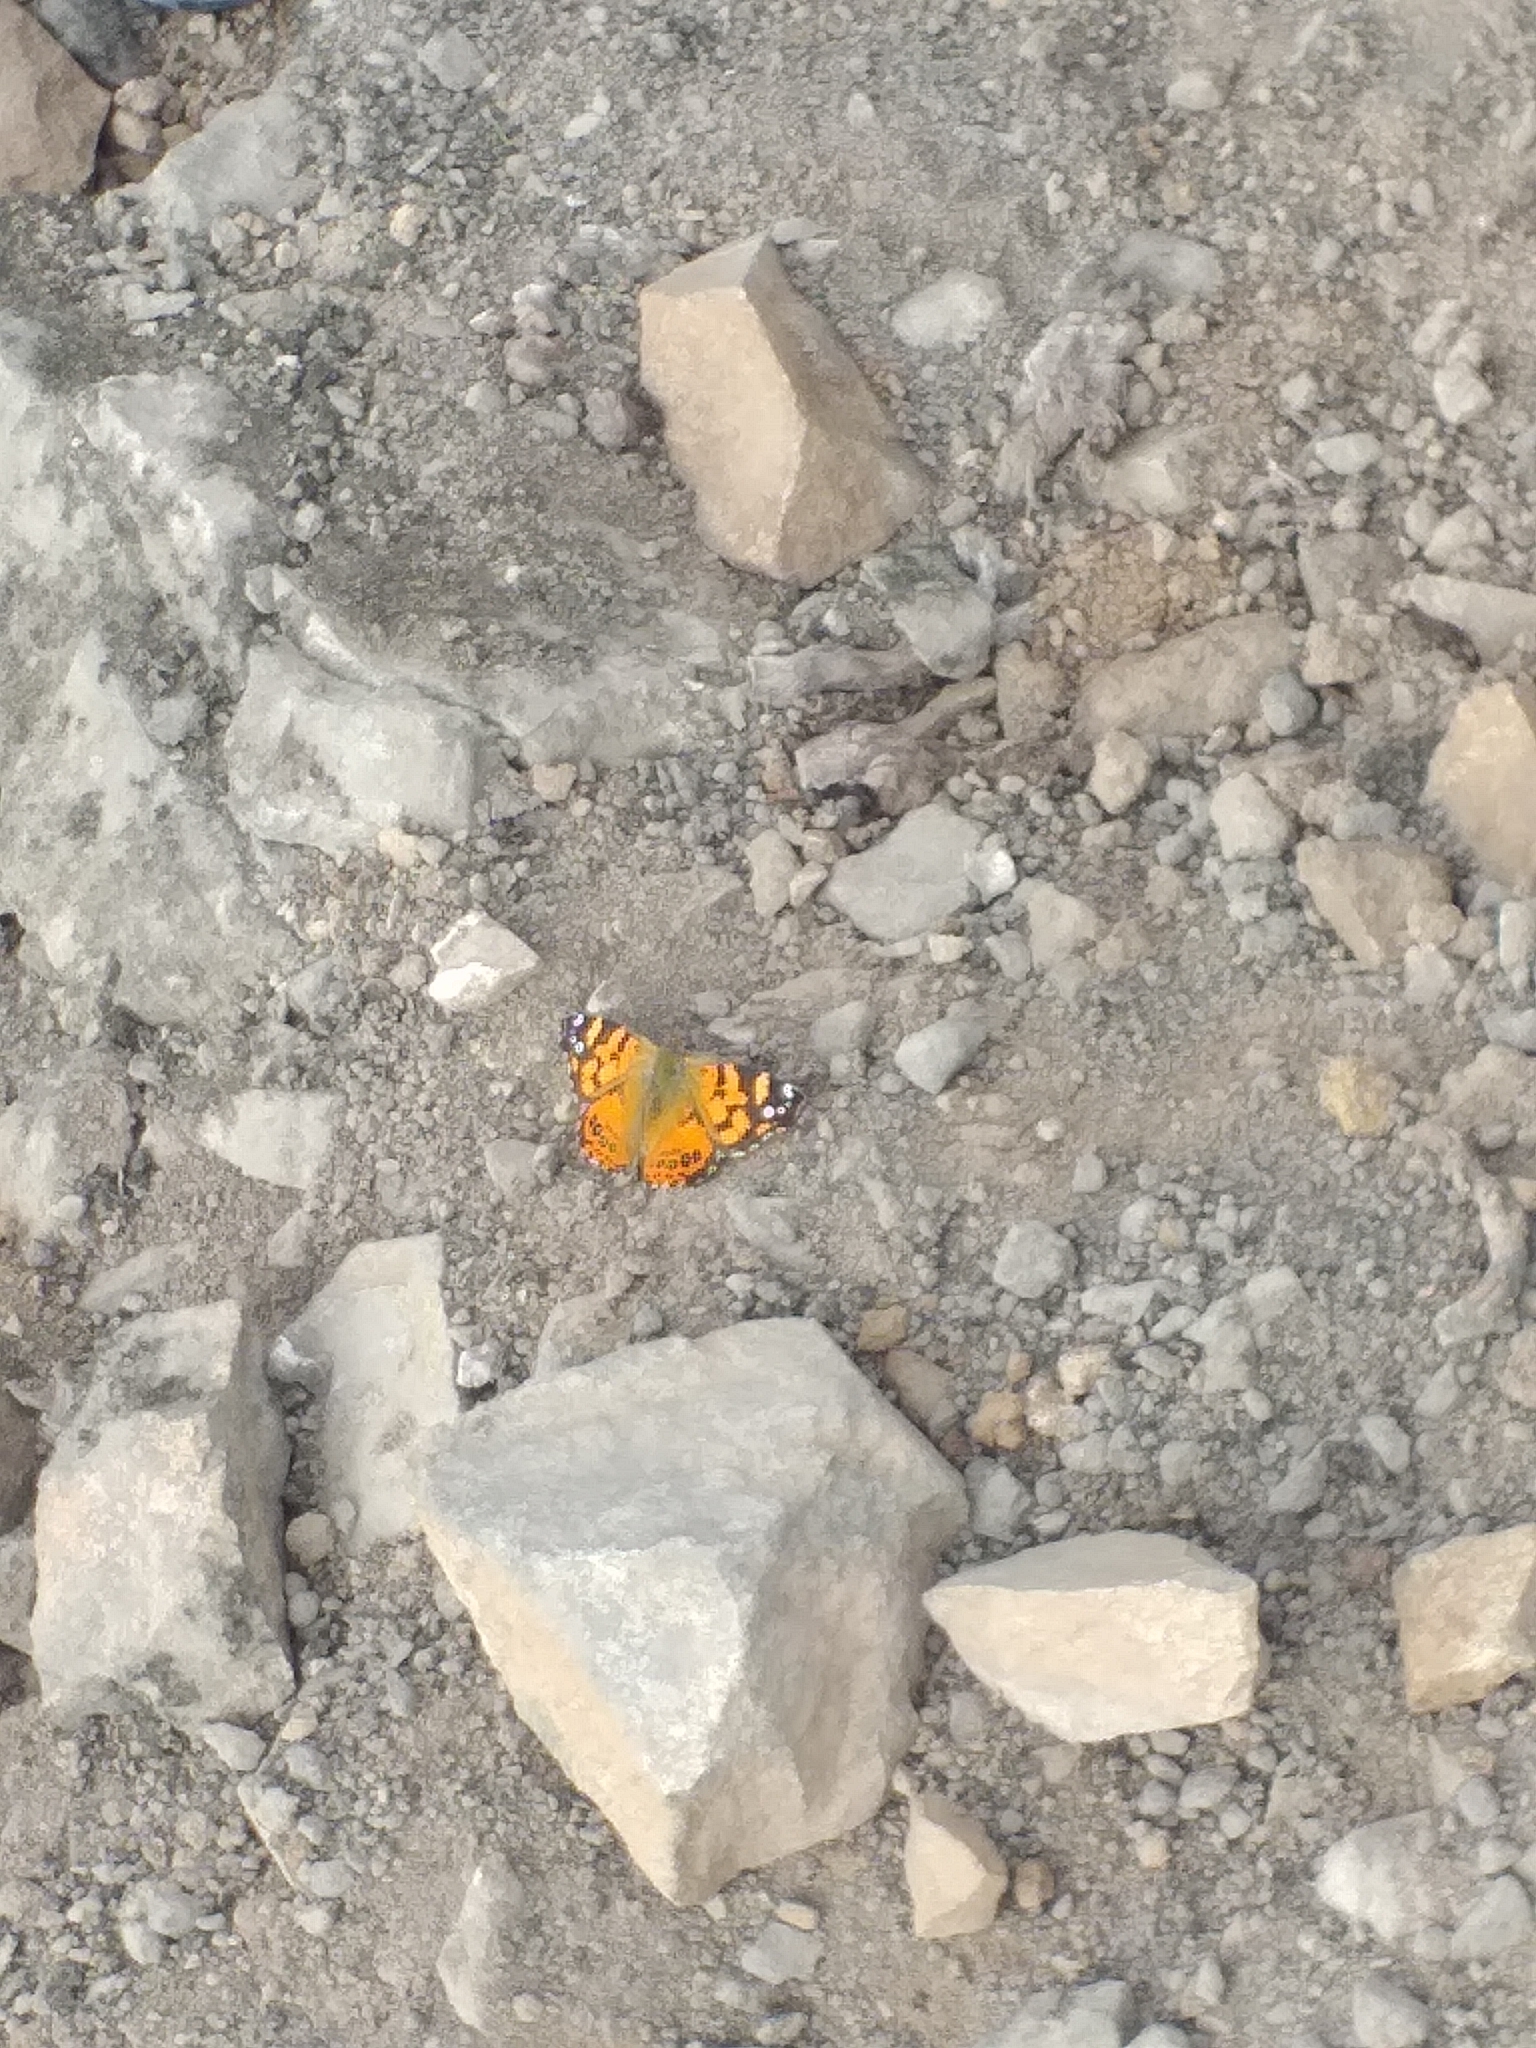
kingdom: Animalia
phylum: Arthropoda
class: Insecta
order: Lepidoptera
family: Nymphalidae
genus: Vanessa
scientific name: Vanessa carye
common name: Subtropical lady
